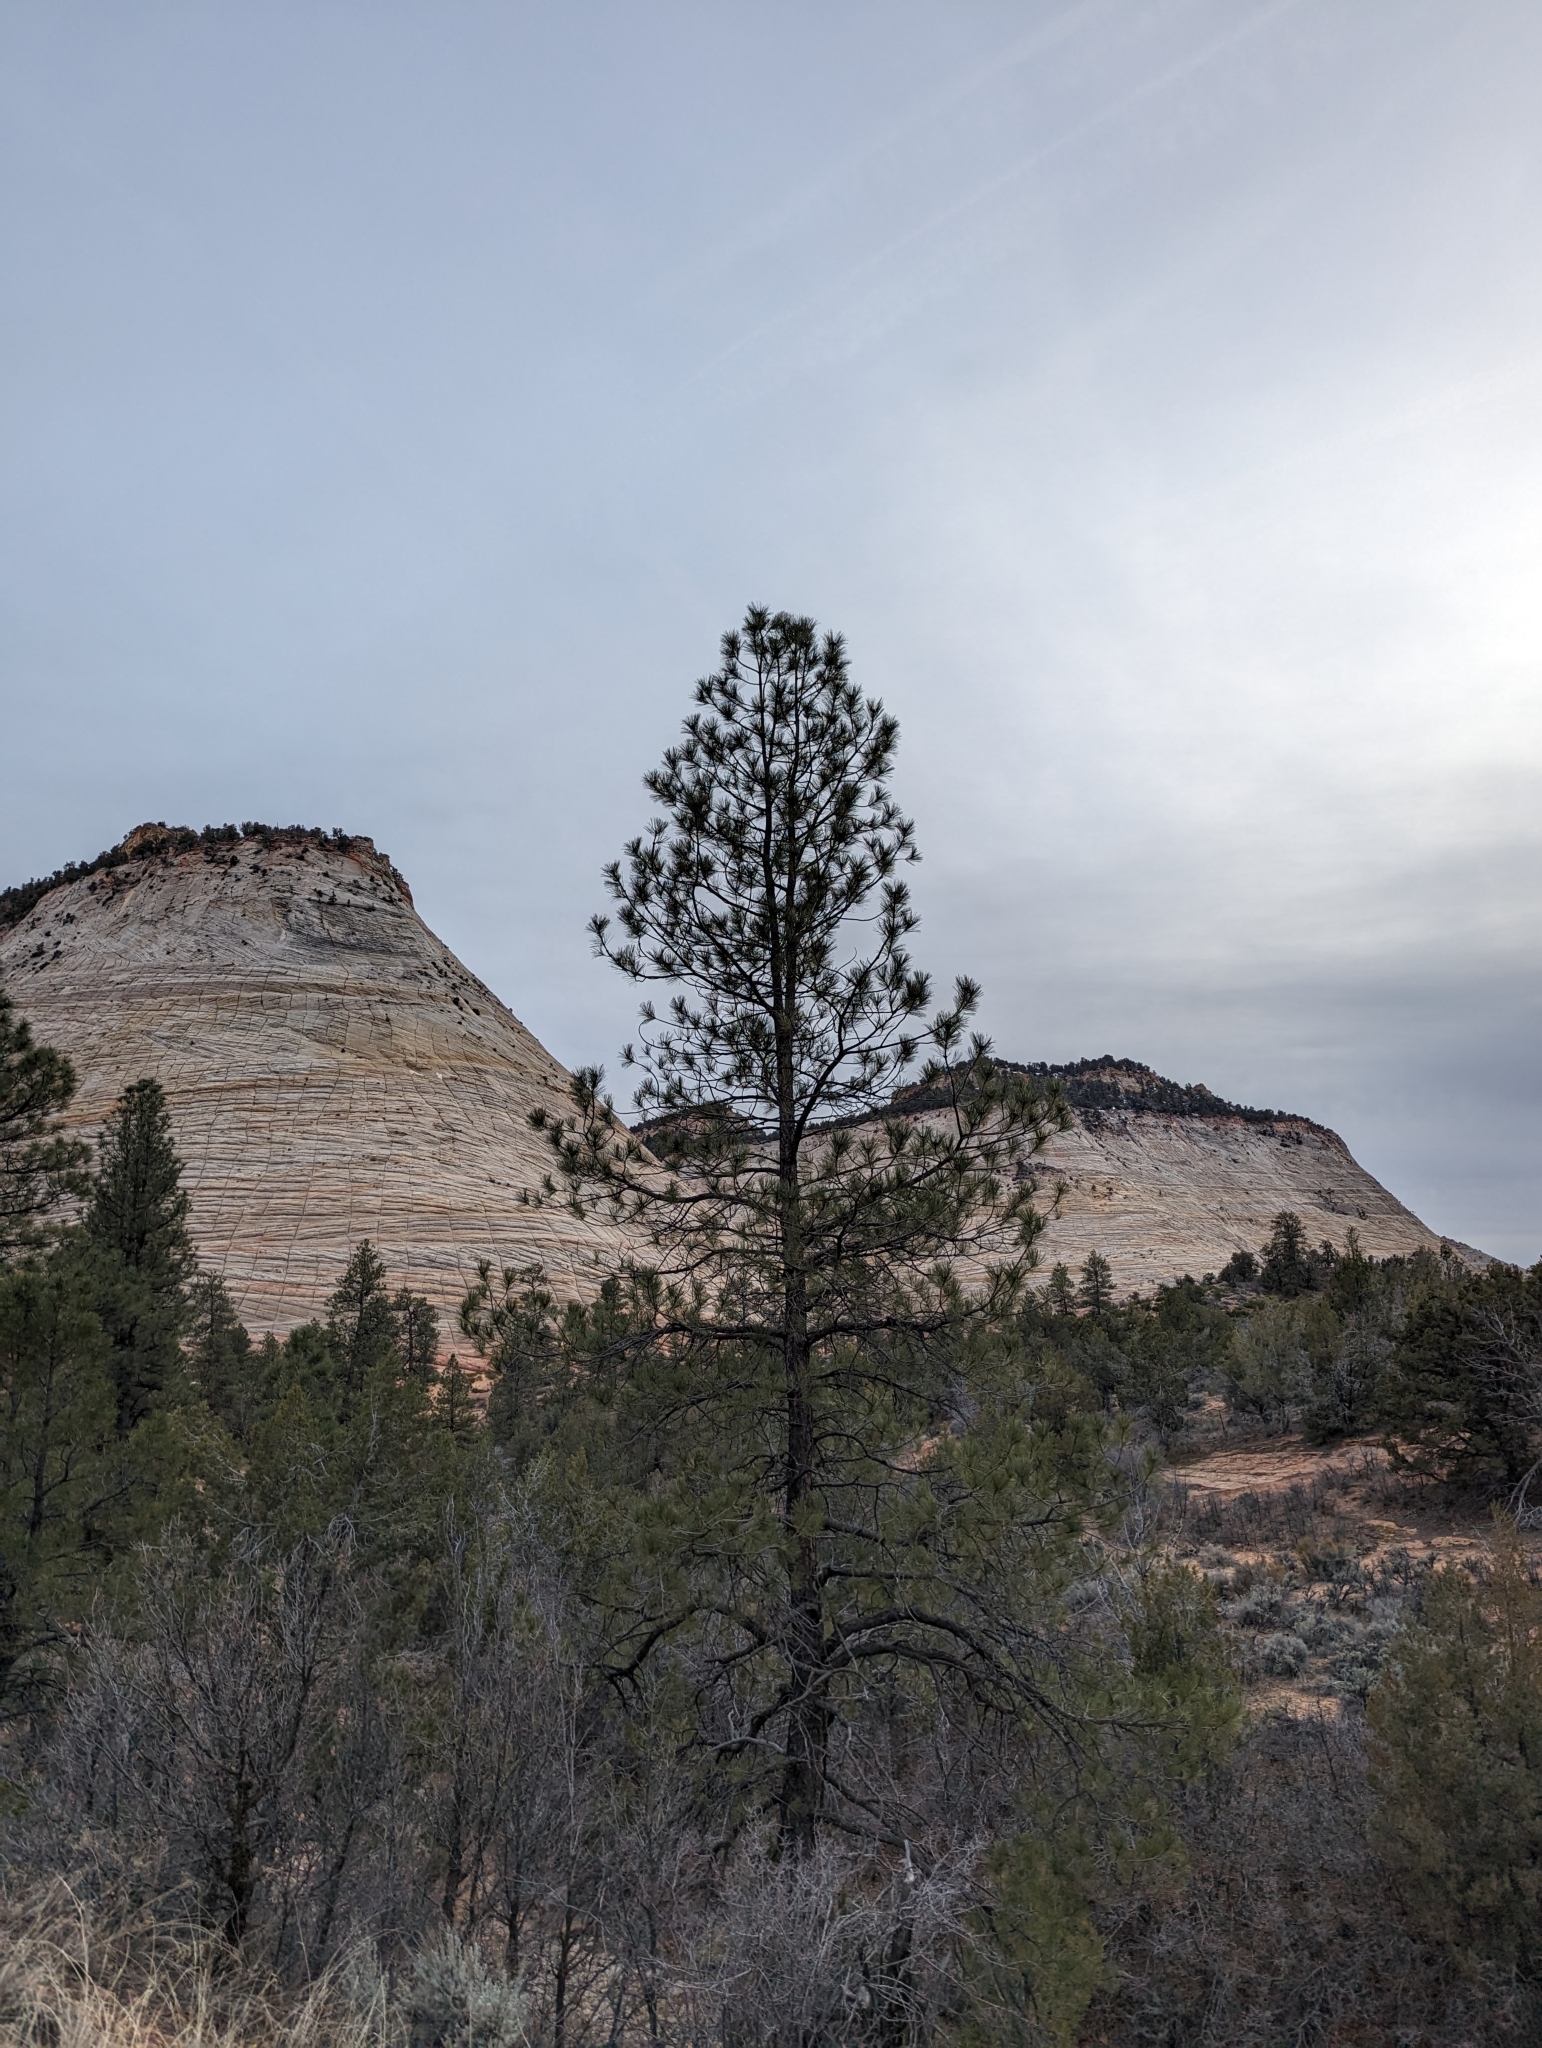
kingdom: Plantae
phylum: Tracheophyta
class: Pinopsida
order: Pinales
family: Pinaceae
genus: Pinus
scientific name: Pinus ponderosa
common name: Western yellow-pine
